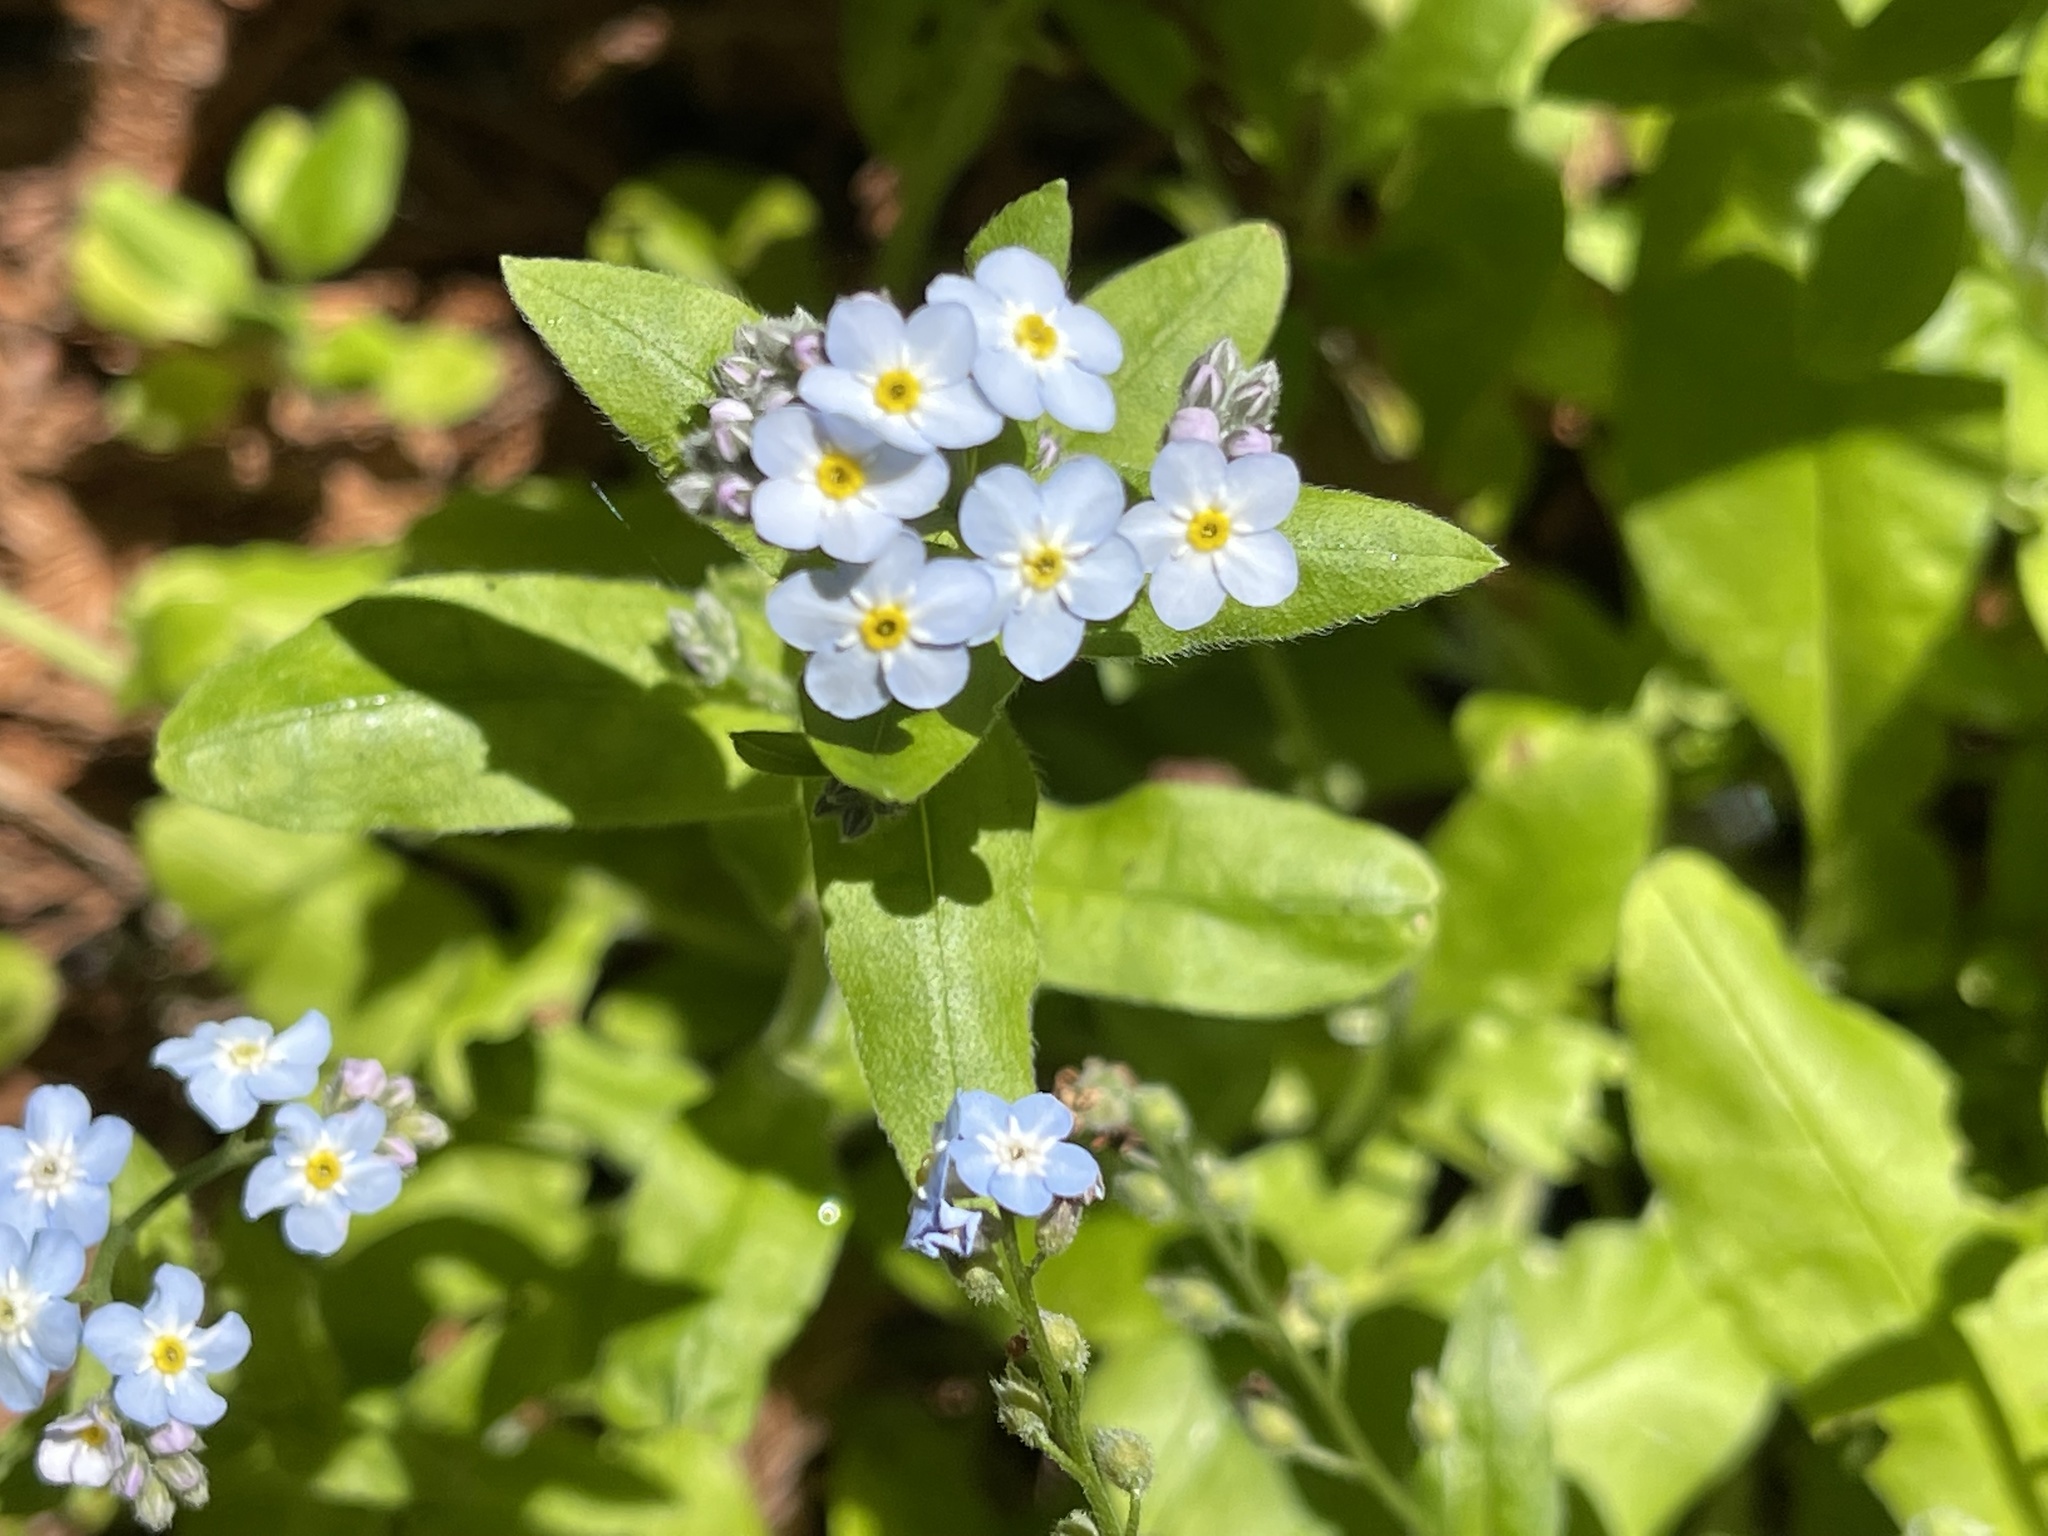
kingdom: Plantae
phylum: Tracheophyta
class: Magnoliopsida
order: Boraginales
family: Boraginaceae
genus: Myosotis
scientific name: Myosotis latifolia
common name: Broadleaf forget-me-not
